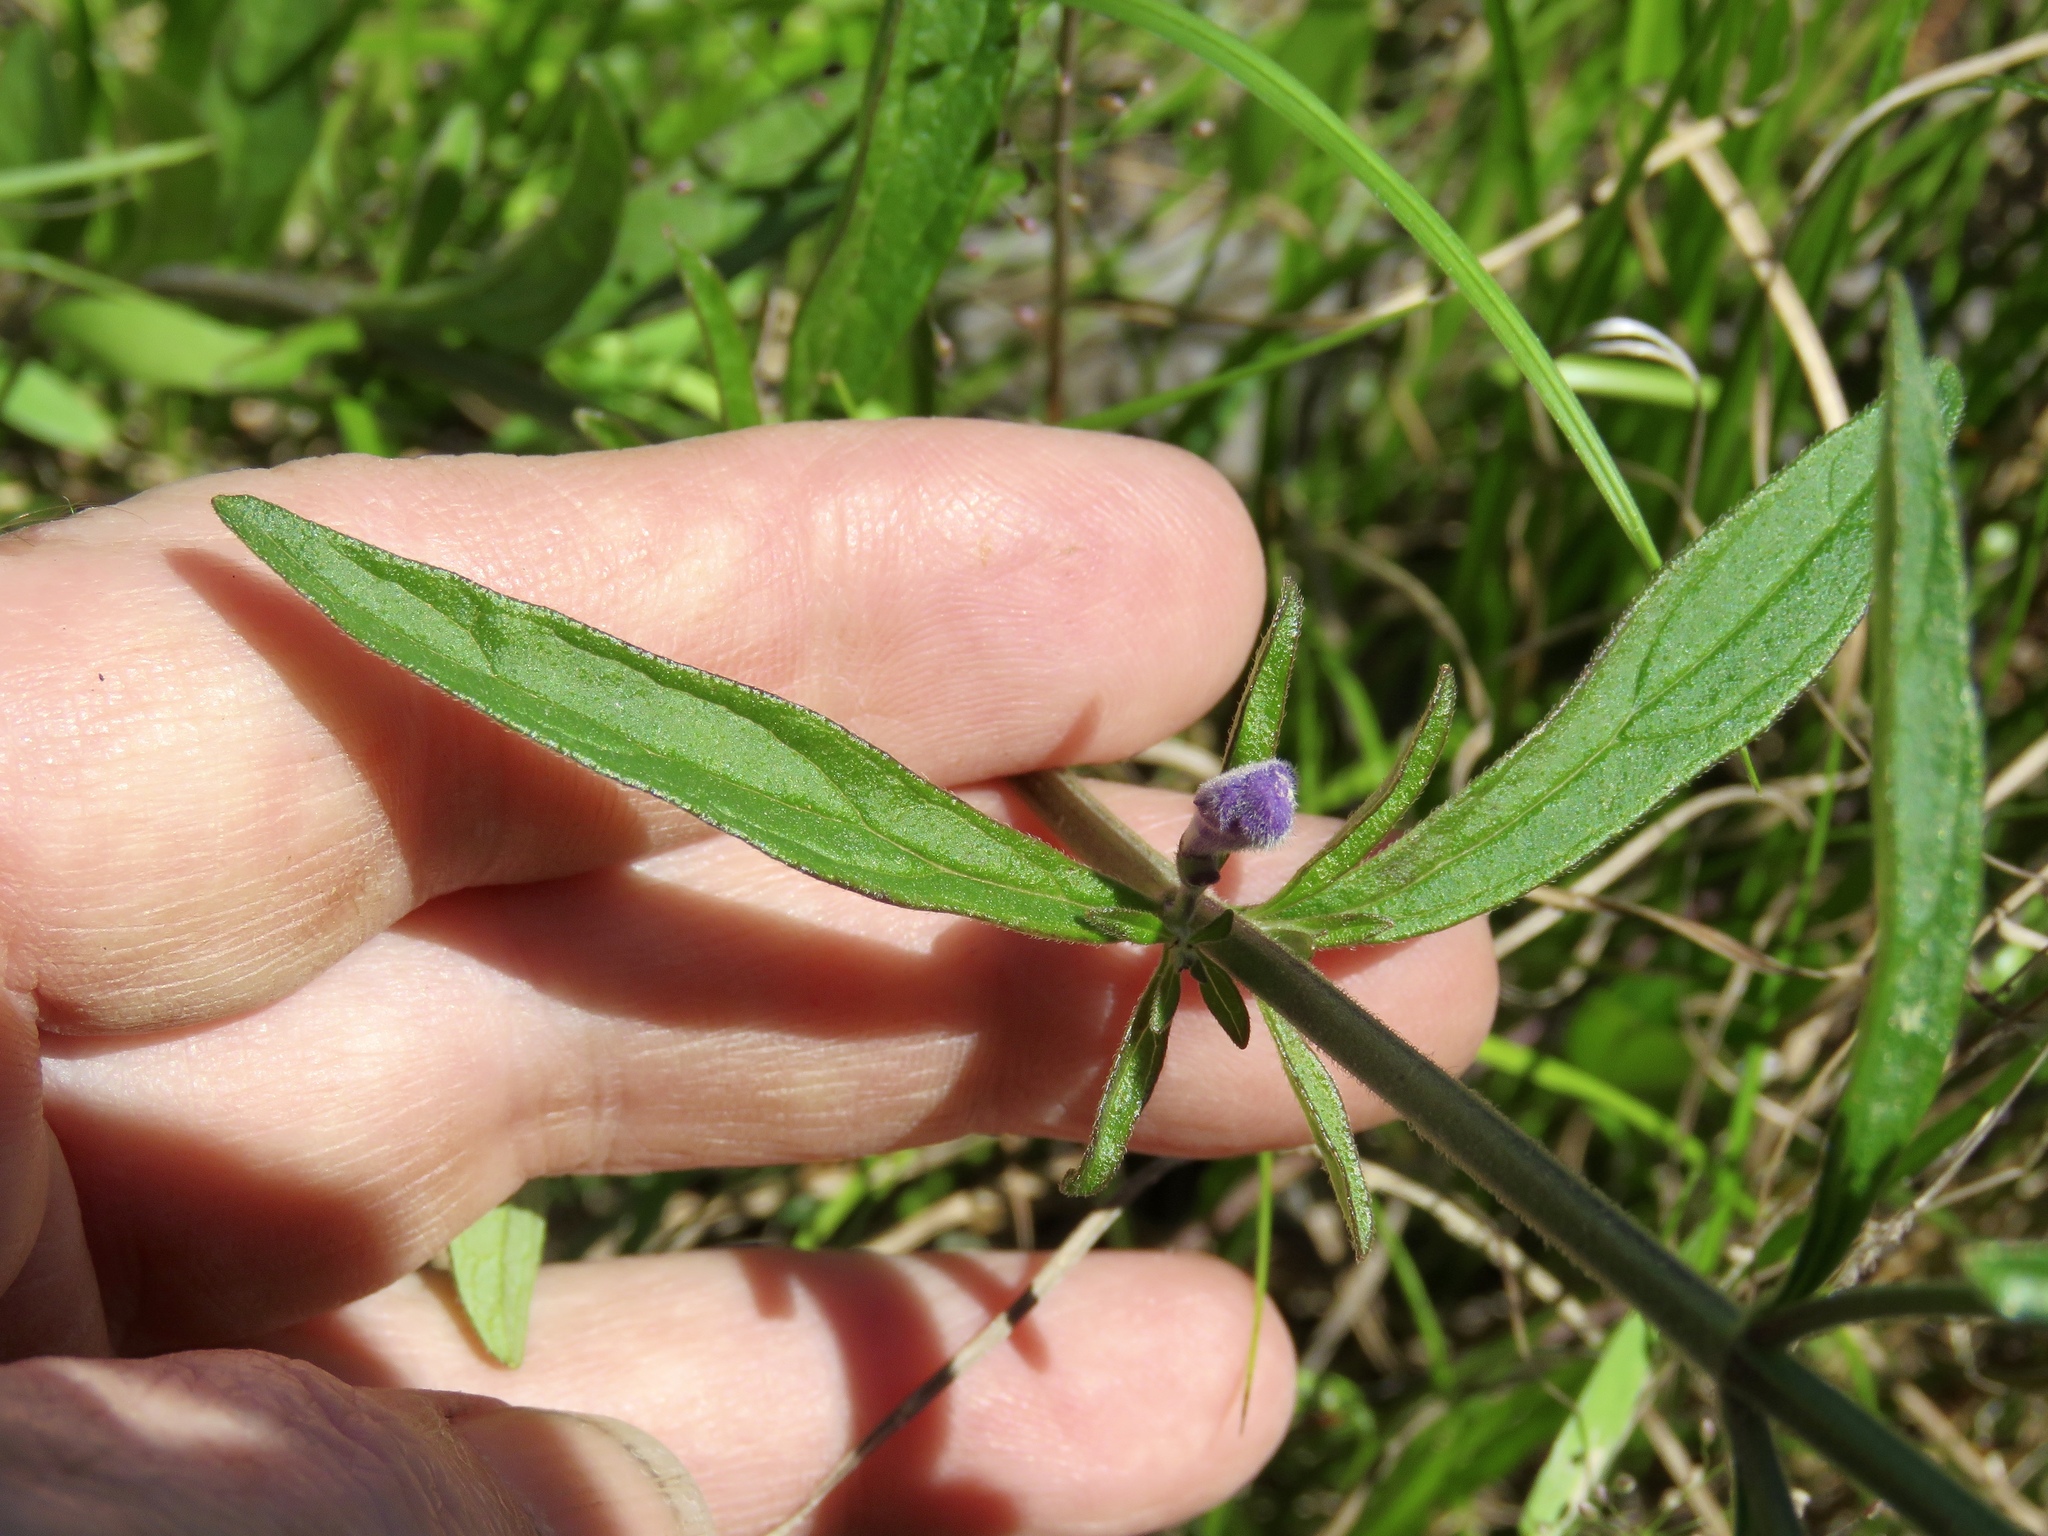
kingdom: Plantae
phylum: Tracheophyta
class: Magnoliopsida
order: Lamiales
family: Lamiaceae
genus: Scutellaria
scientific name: Scutellaria integrifolia
